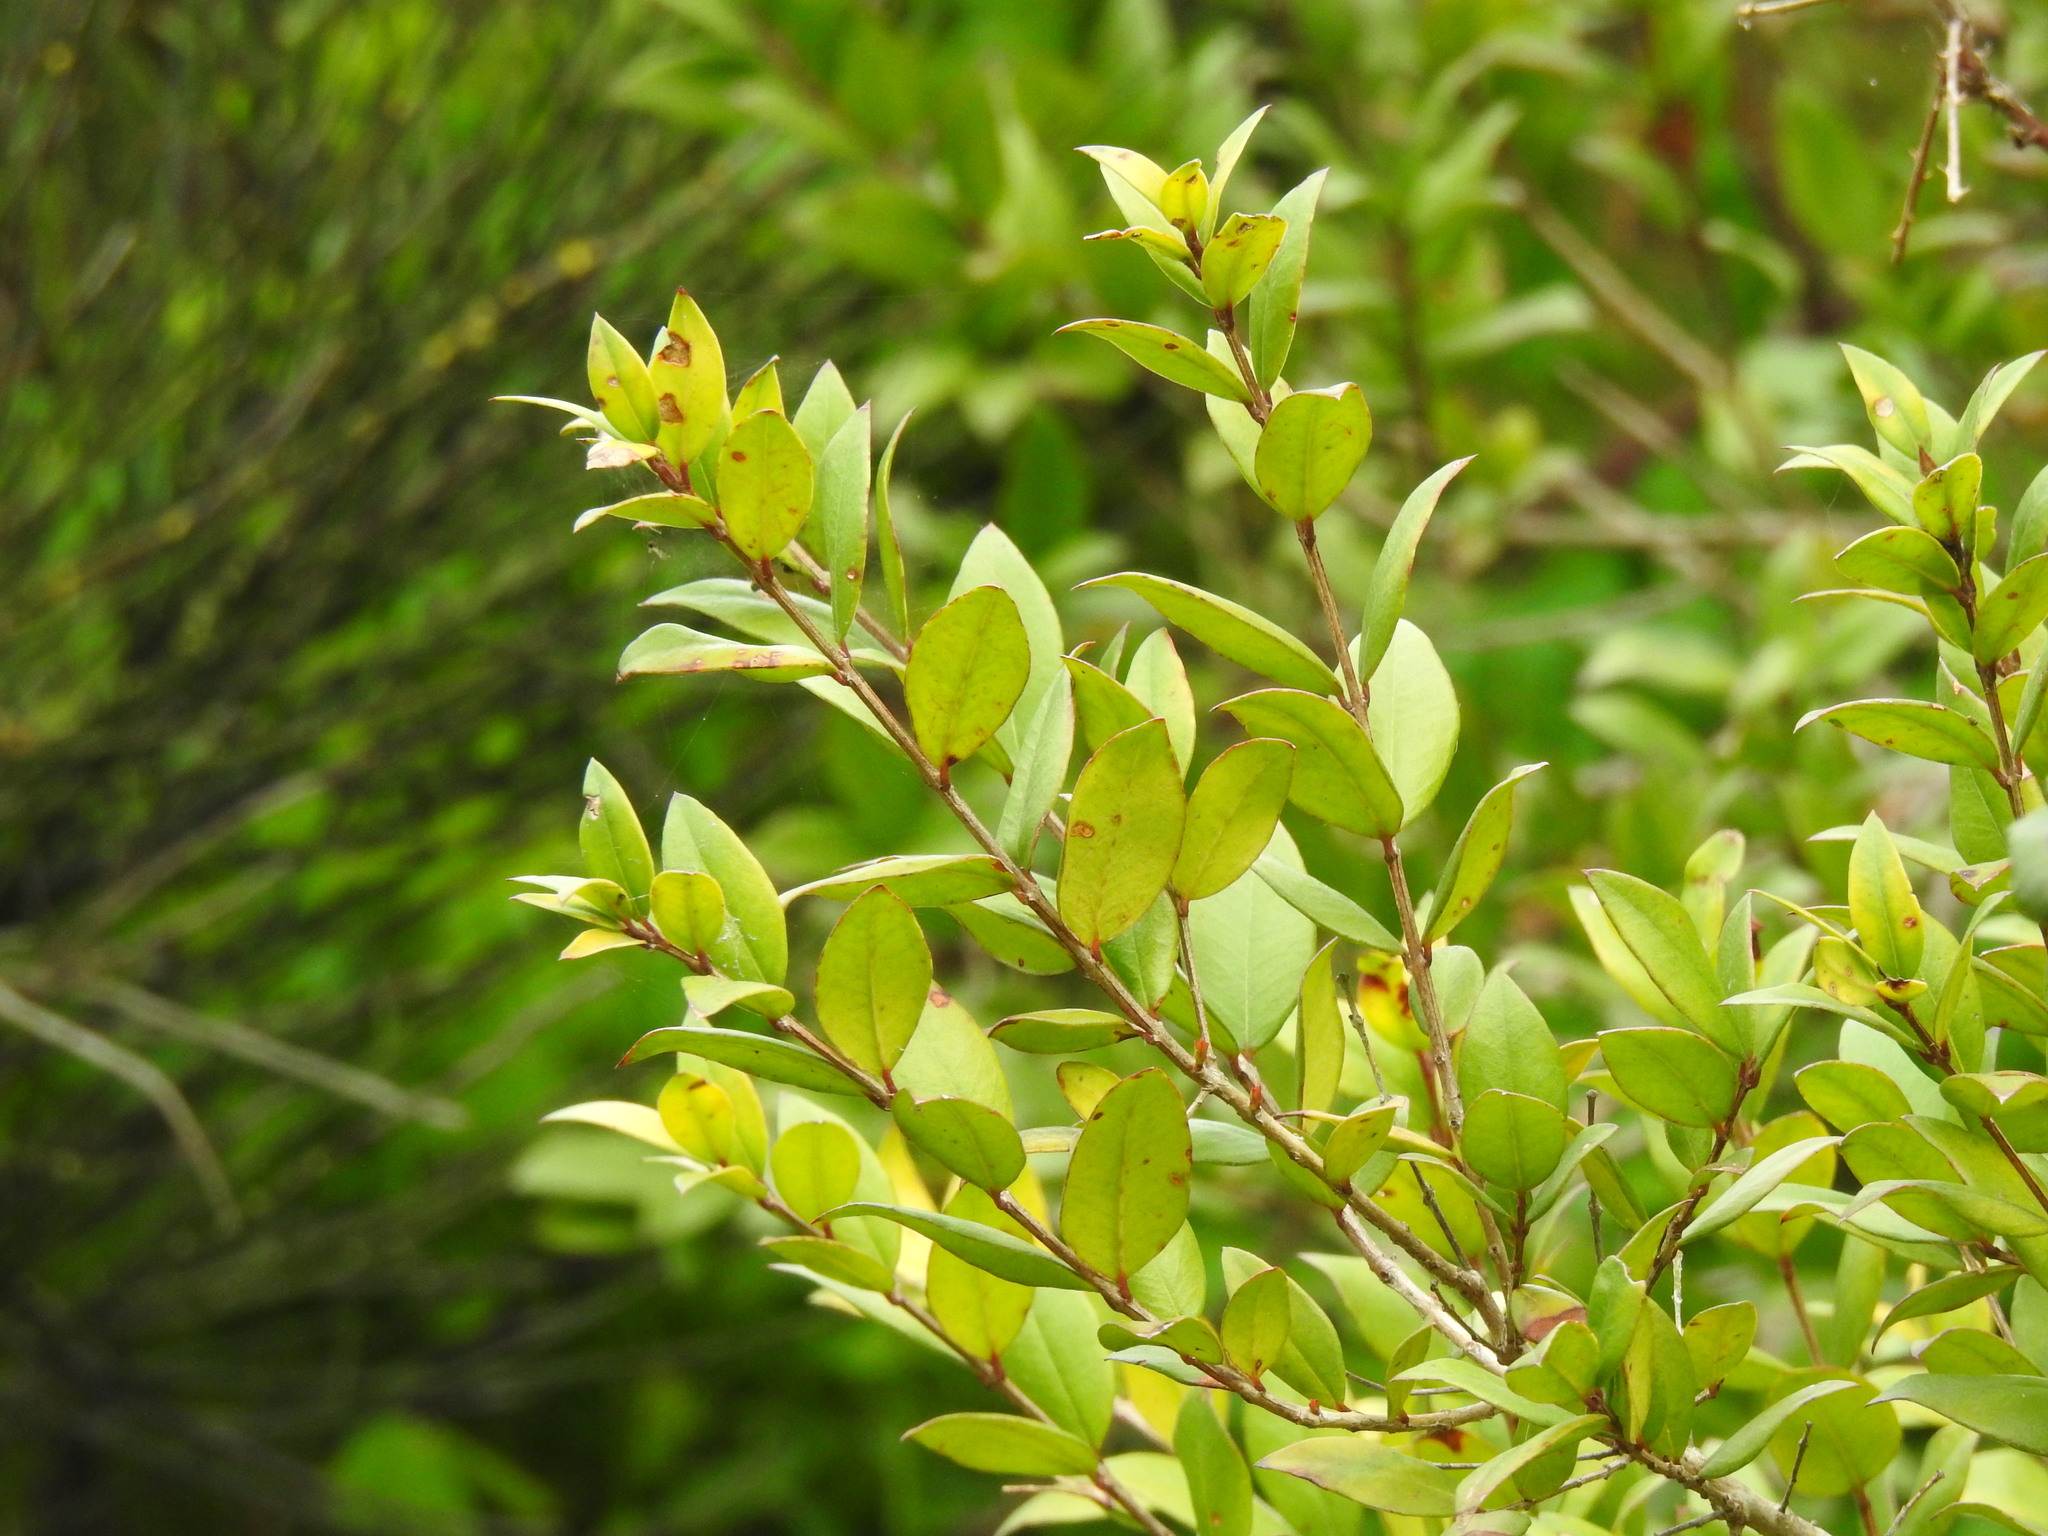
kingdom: Plantae
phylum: Tracheophyta
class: Magnoliopsida
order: Myrtales
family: Myrtaceae
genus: Myrtus
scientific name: Myrtus communis
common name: Myrtle
